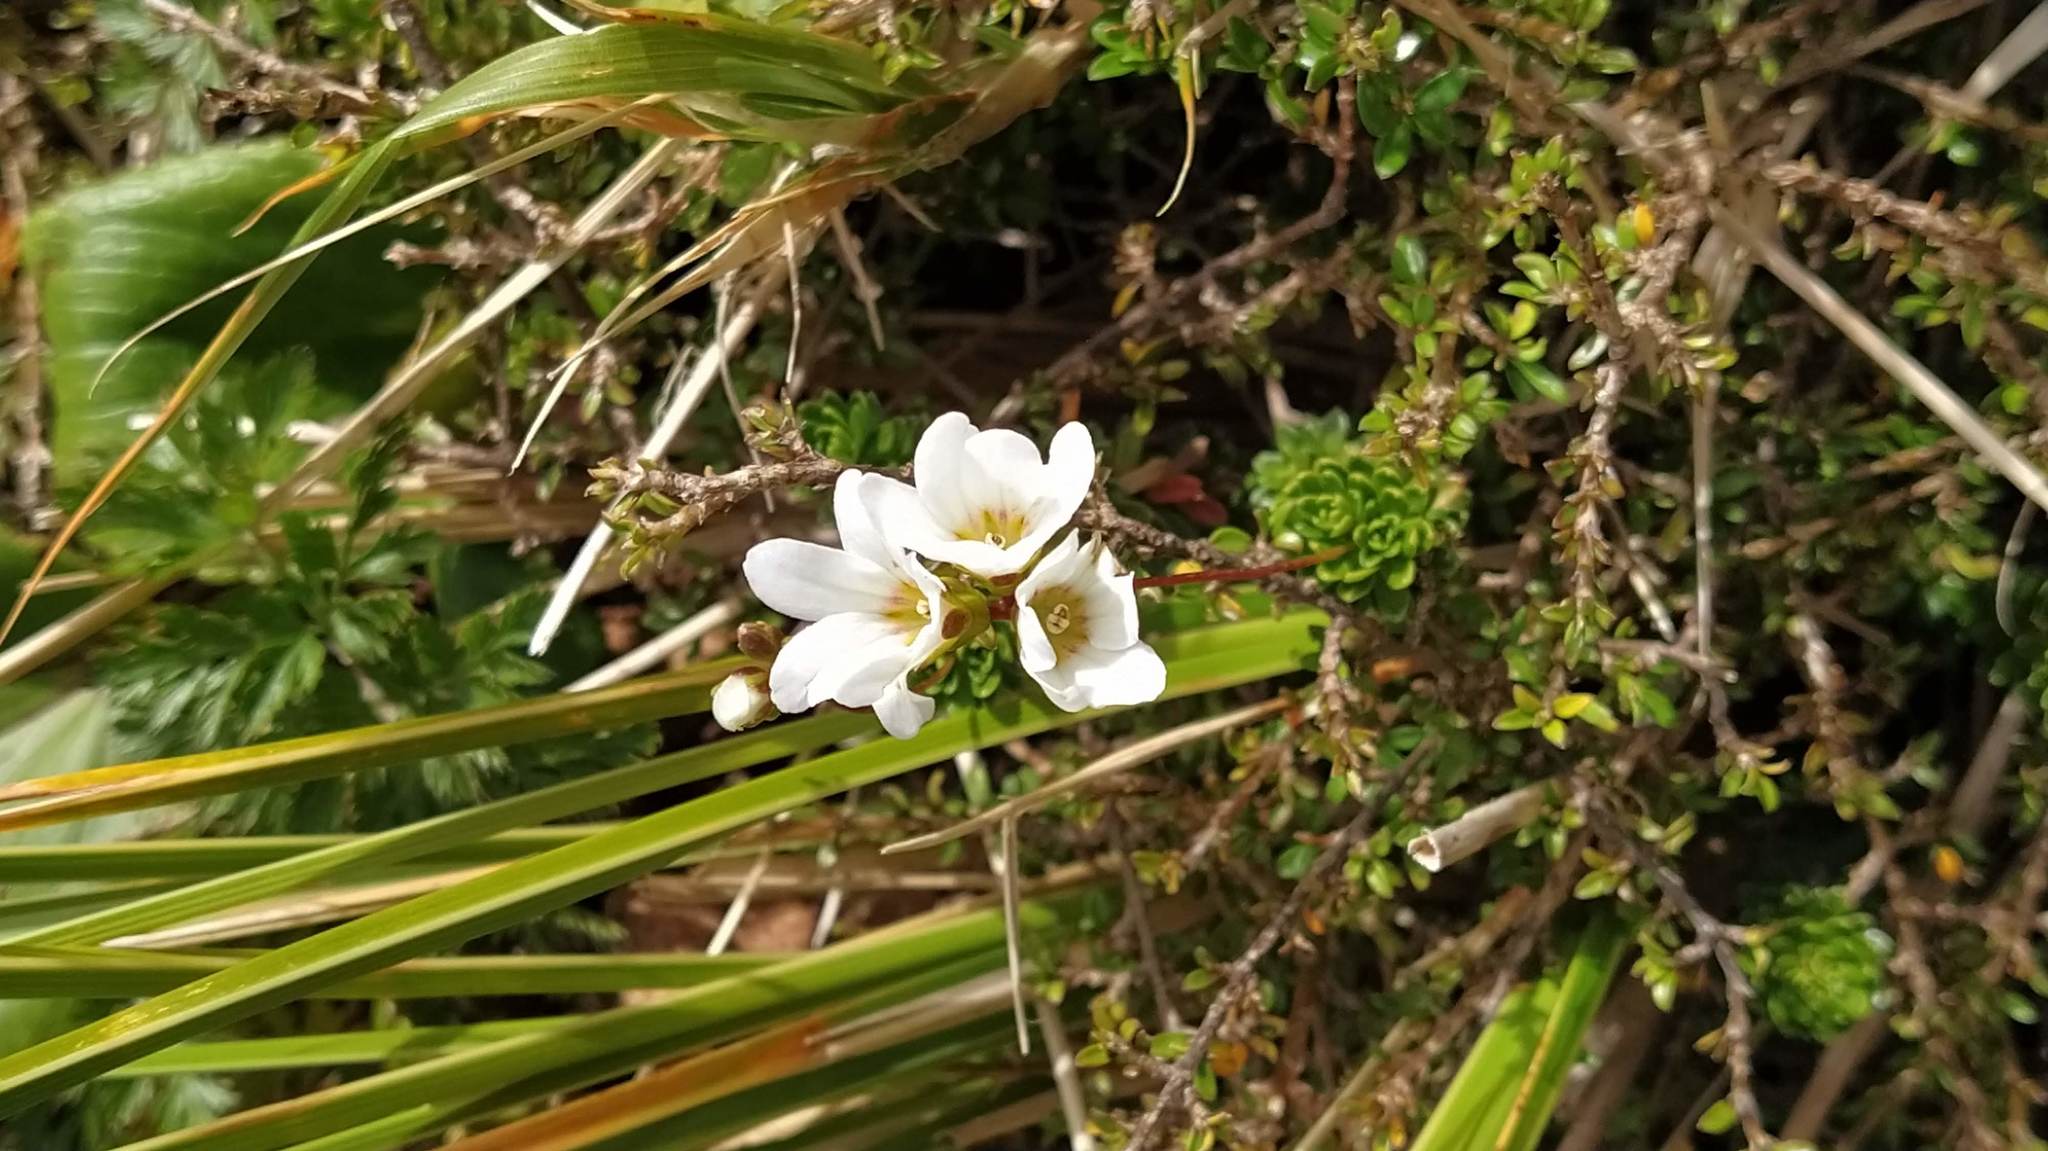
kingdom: Plantae
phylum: Tracheophyta
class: Magnoliopsida
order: Asterales
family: Stylidiaceae
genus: Forstera
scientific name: Forstera mackayi
